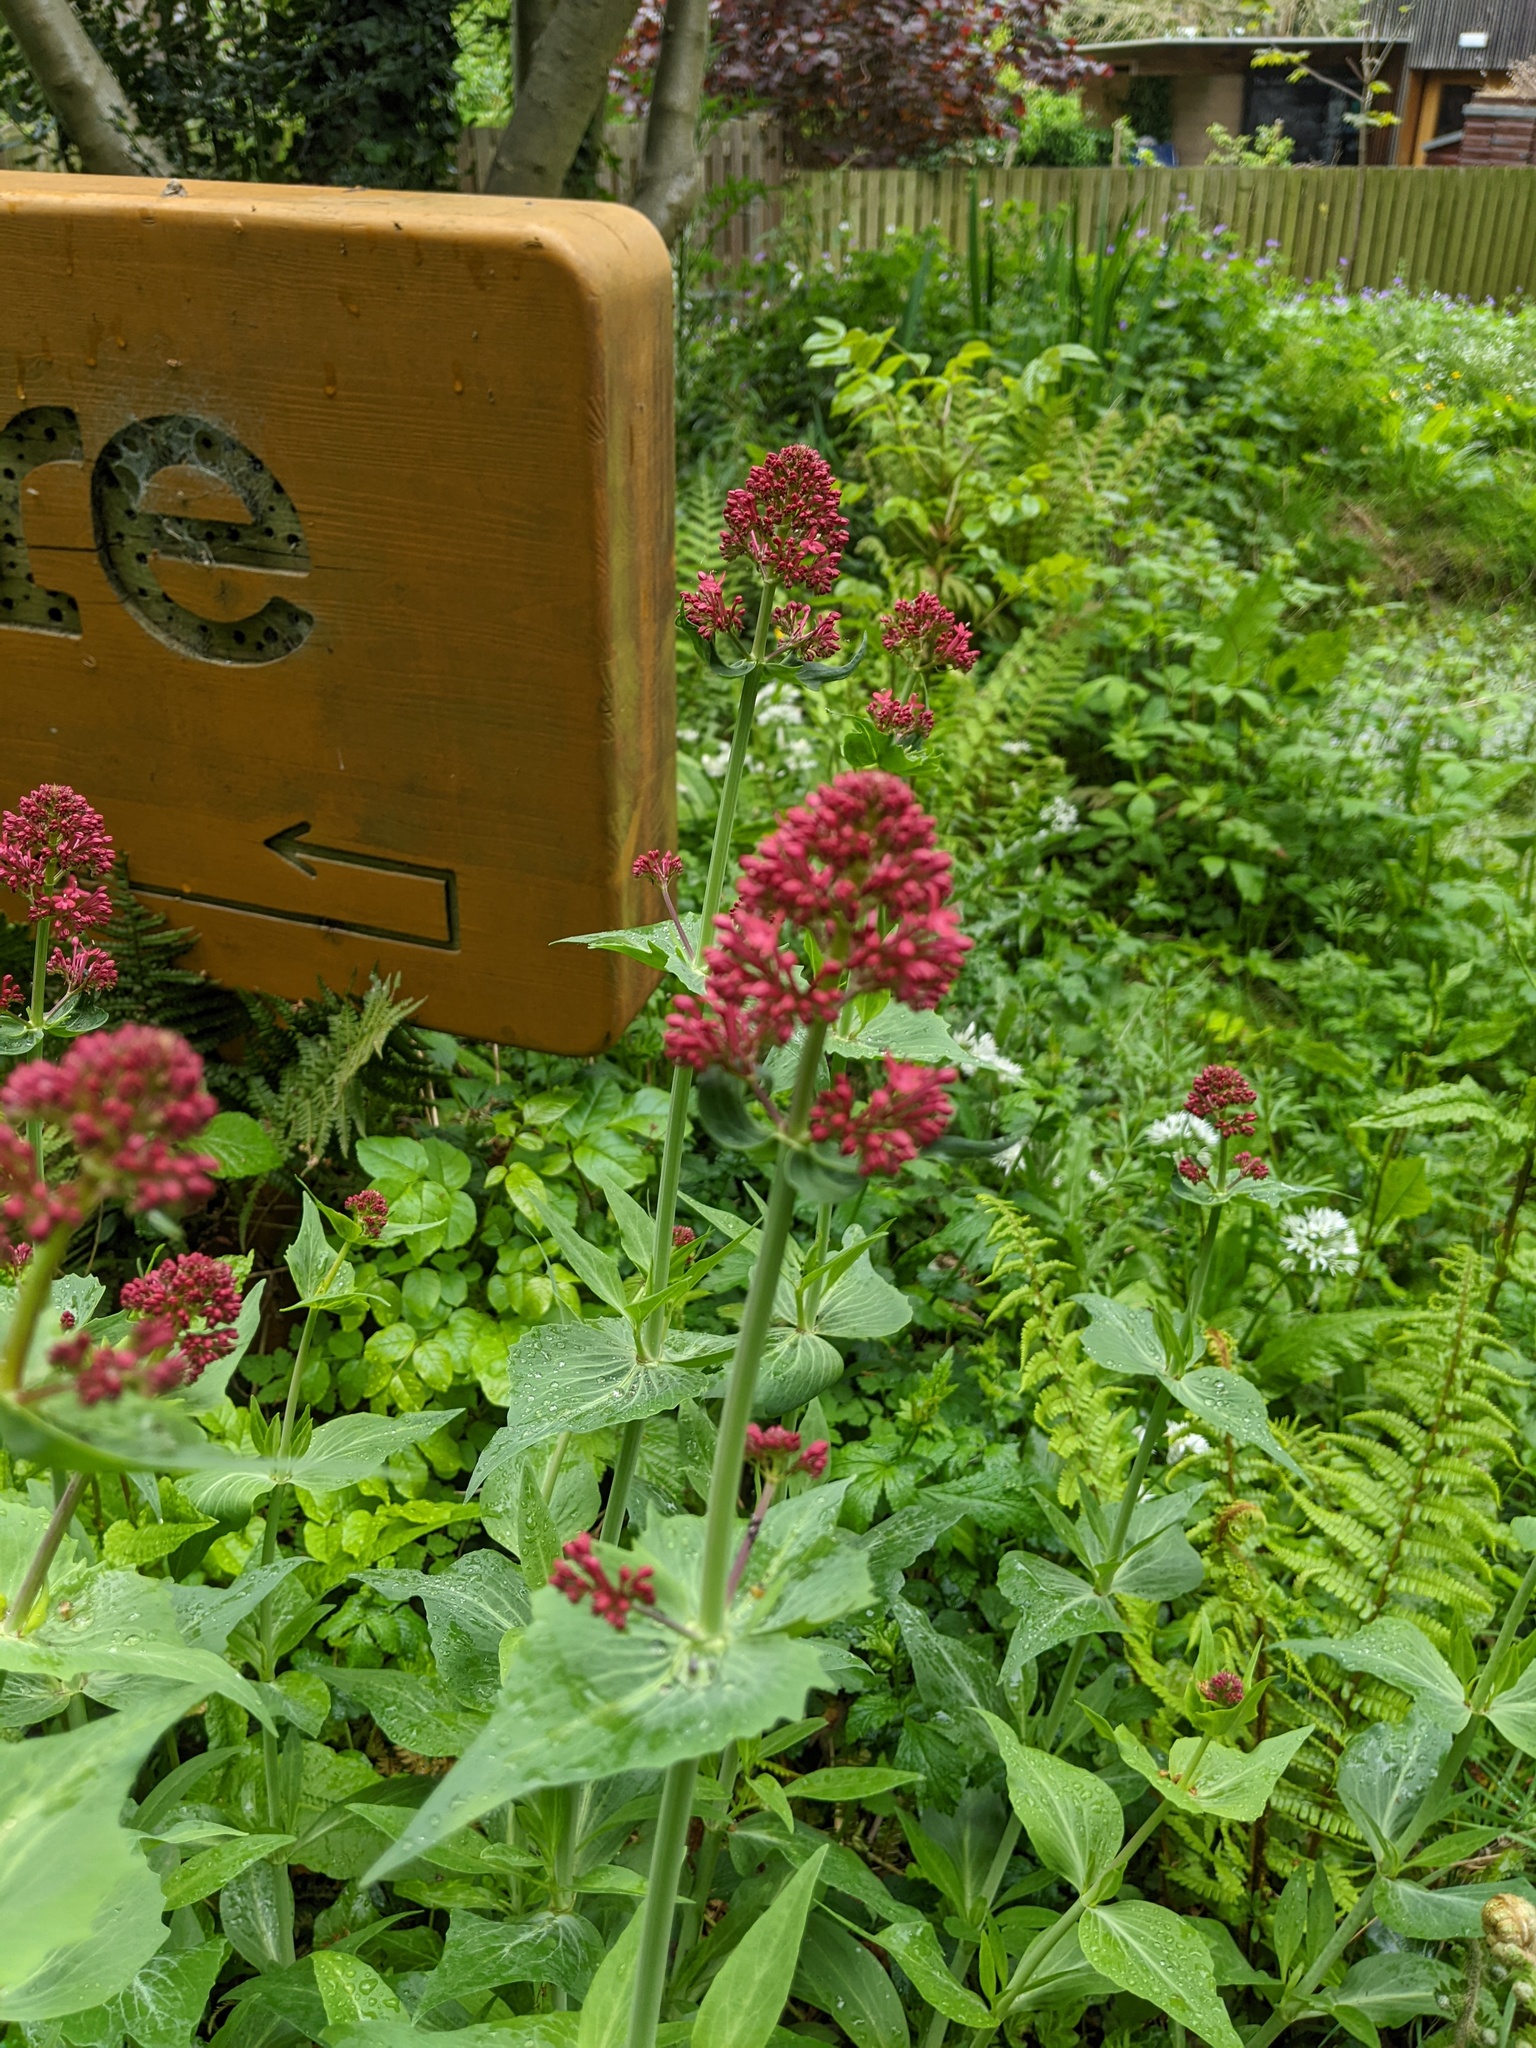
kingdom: Plantae
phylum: Tracheophyta
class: Magnoliopsida
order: Dipsacales
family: Caprifoliaceae
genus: Centranthus
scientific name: Centranthus ruber
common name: Red valerian
